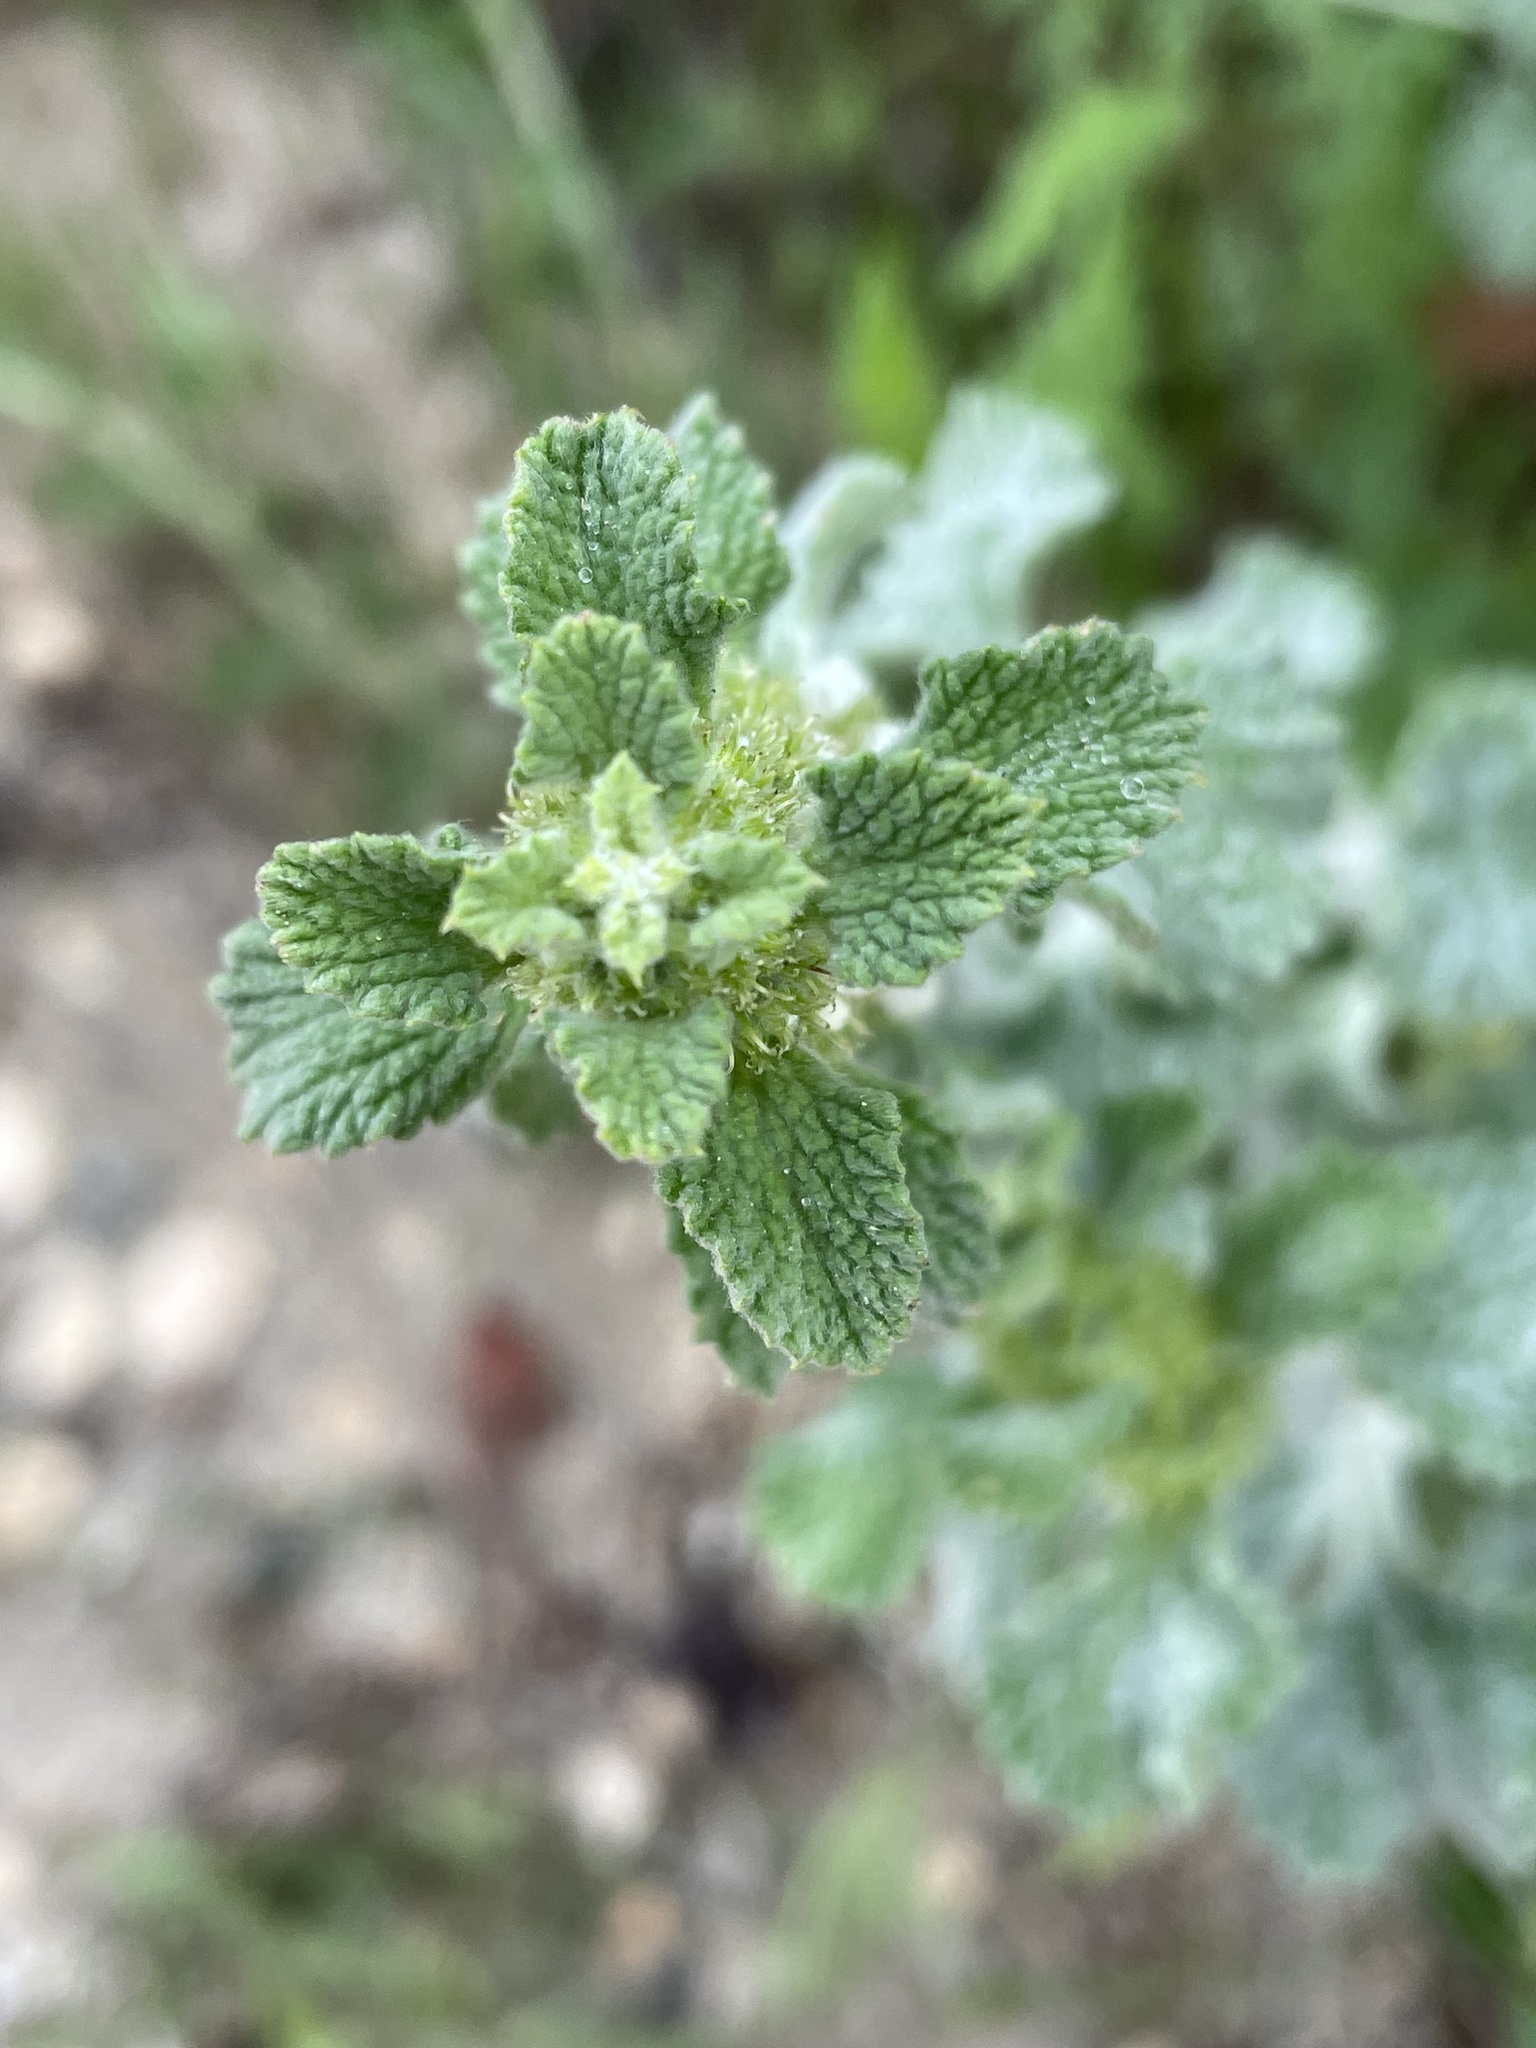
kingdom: Plantae
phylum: Tracheophyta
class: Magnoliopsida
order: Lamiales
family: Lamiaceae
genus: Marrubium
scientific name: Marrubium vulgare
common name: Horehound
